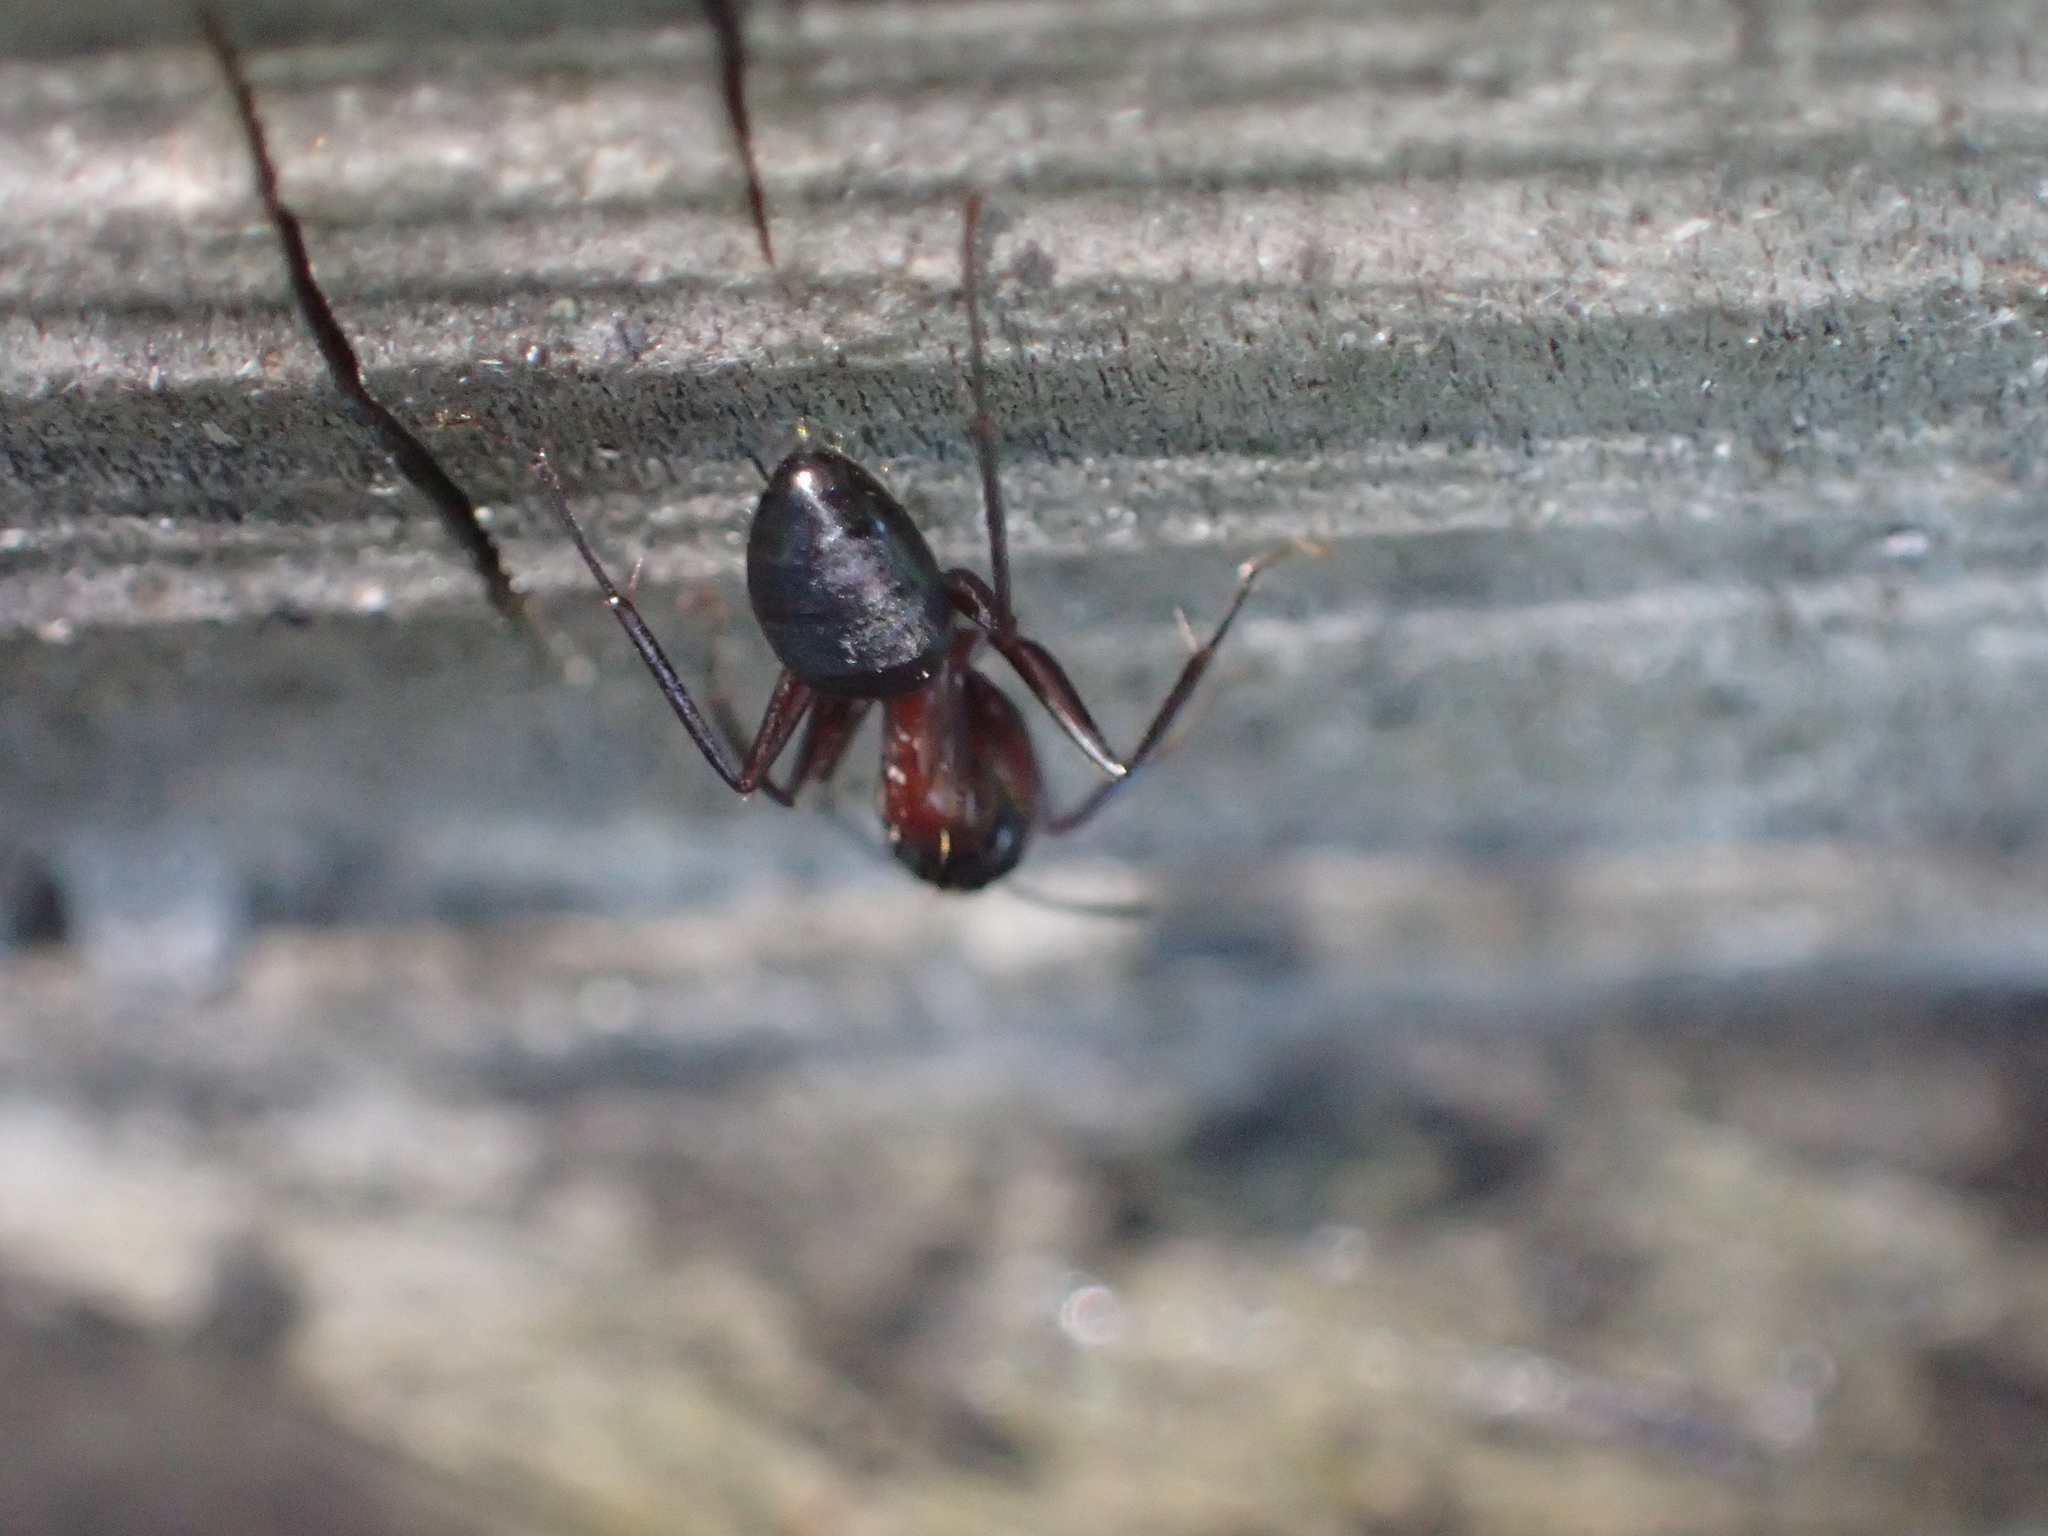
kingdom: Animalia
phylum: Arthropoda
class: Insecta
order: Hymenoptera
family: Formicidae
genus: Camponotus
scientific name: Camponotus ligniperdus
